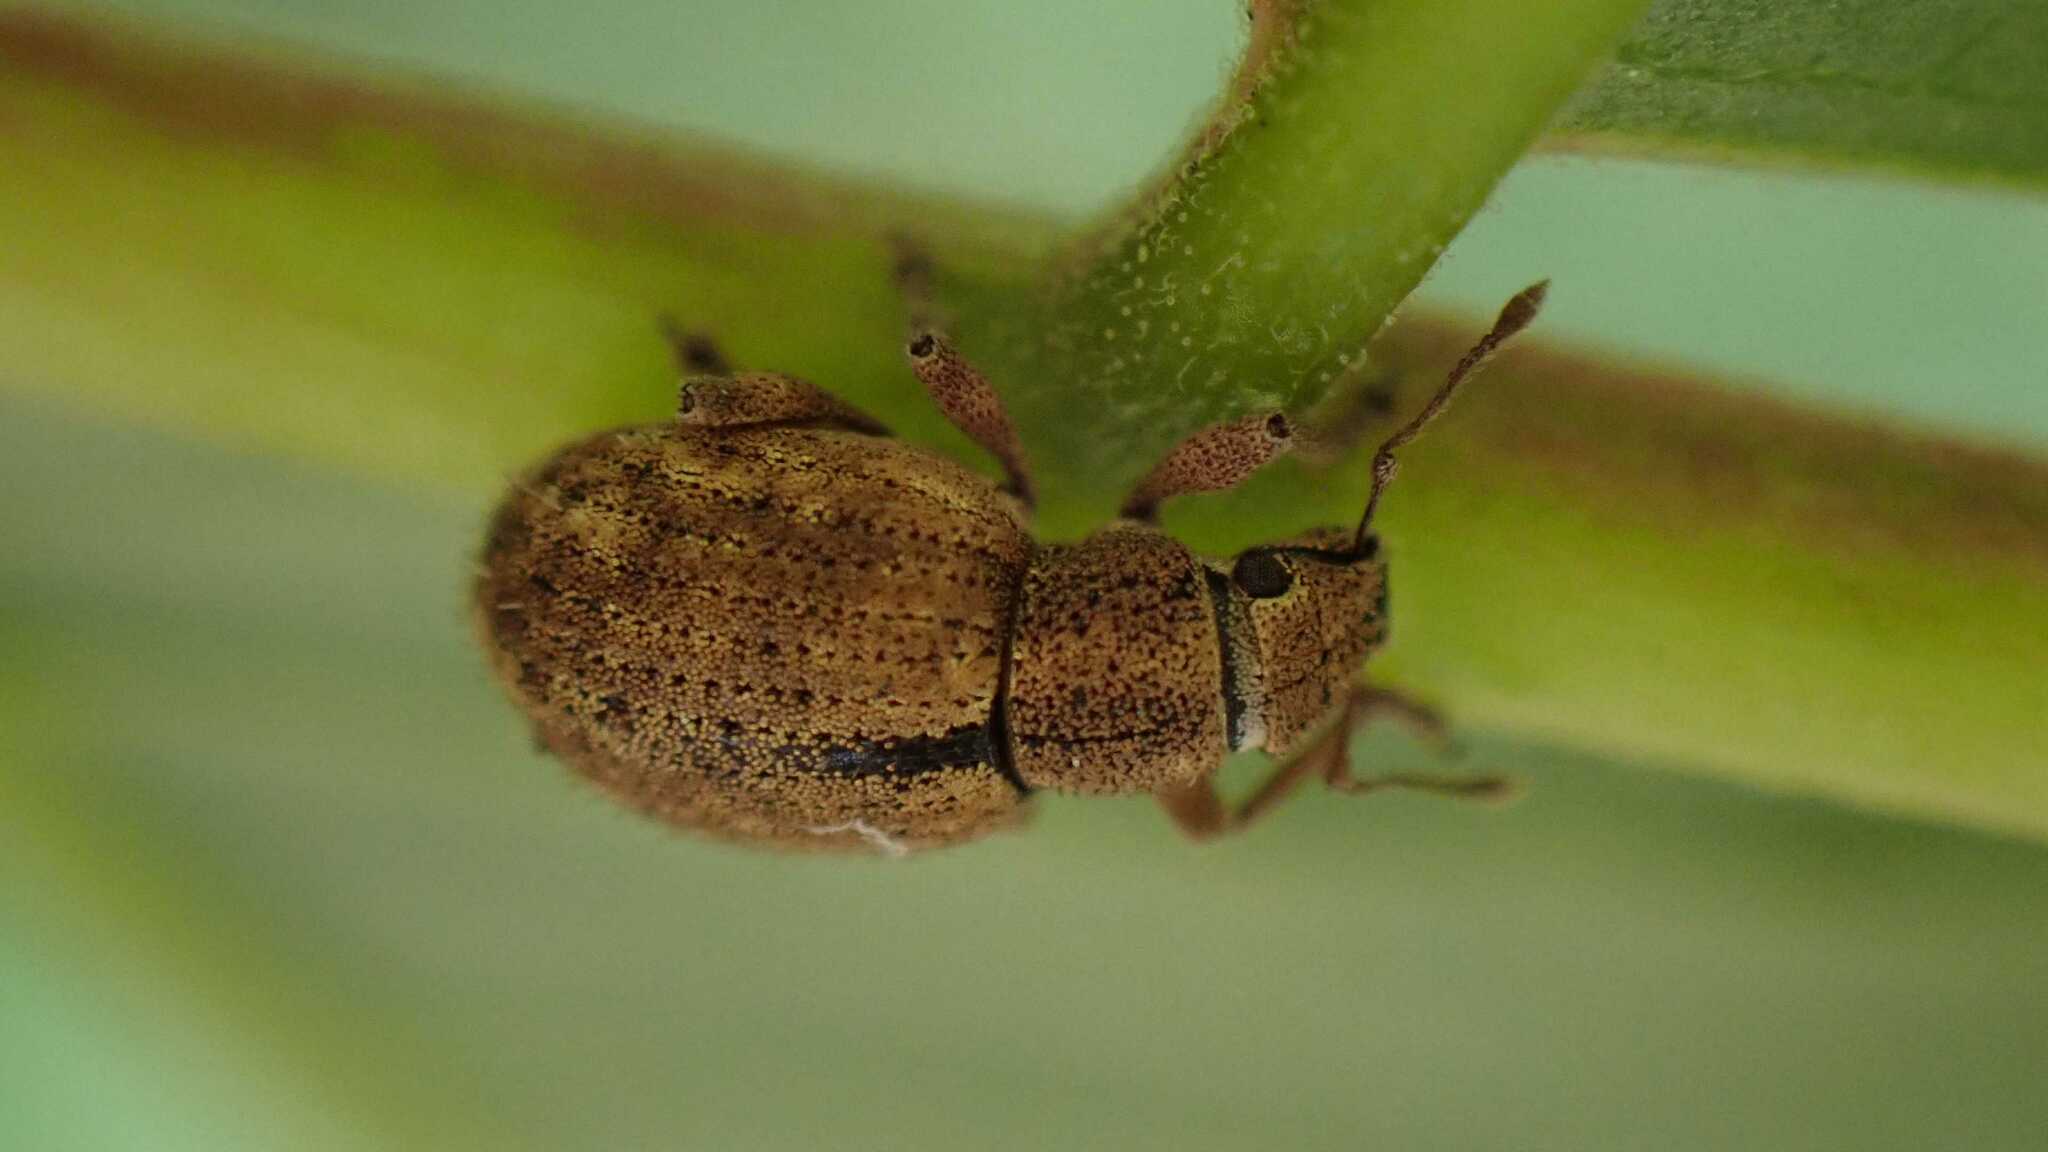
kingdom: Animalia
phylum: Arthropoda
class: Insecta
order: Coleoptera
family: Curculionidae
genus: Strophosoma
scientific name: Strophosoma melanogrammum
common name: Weevil
